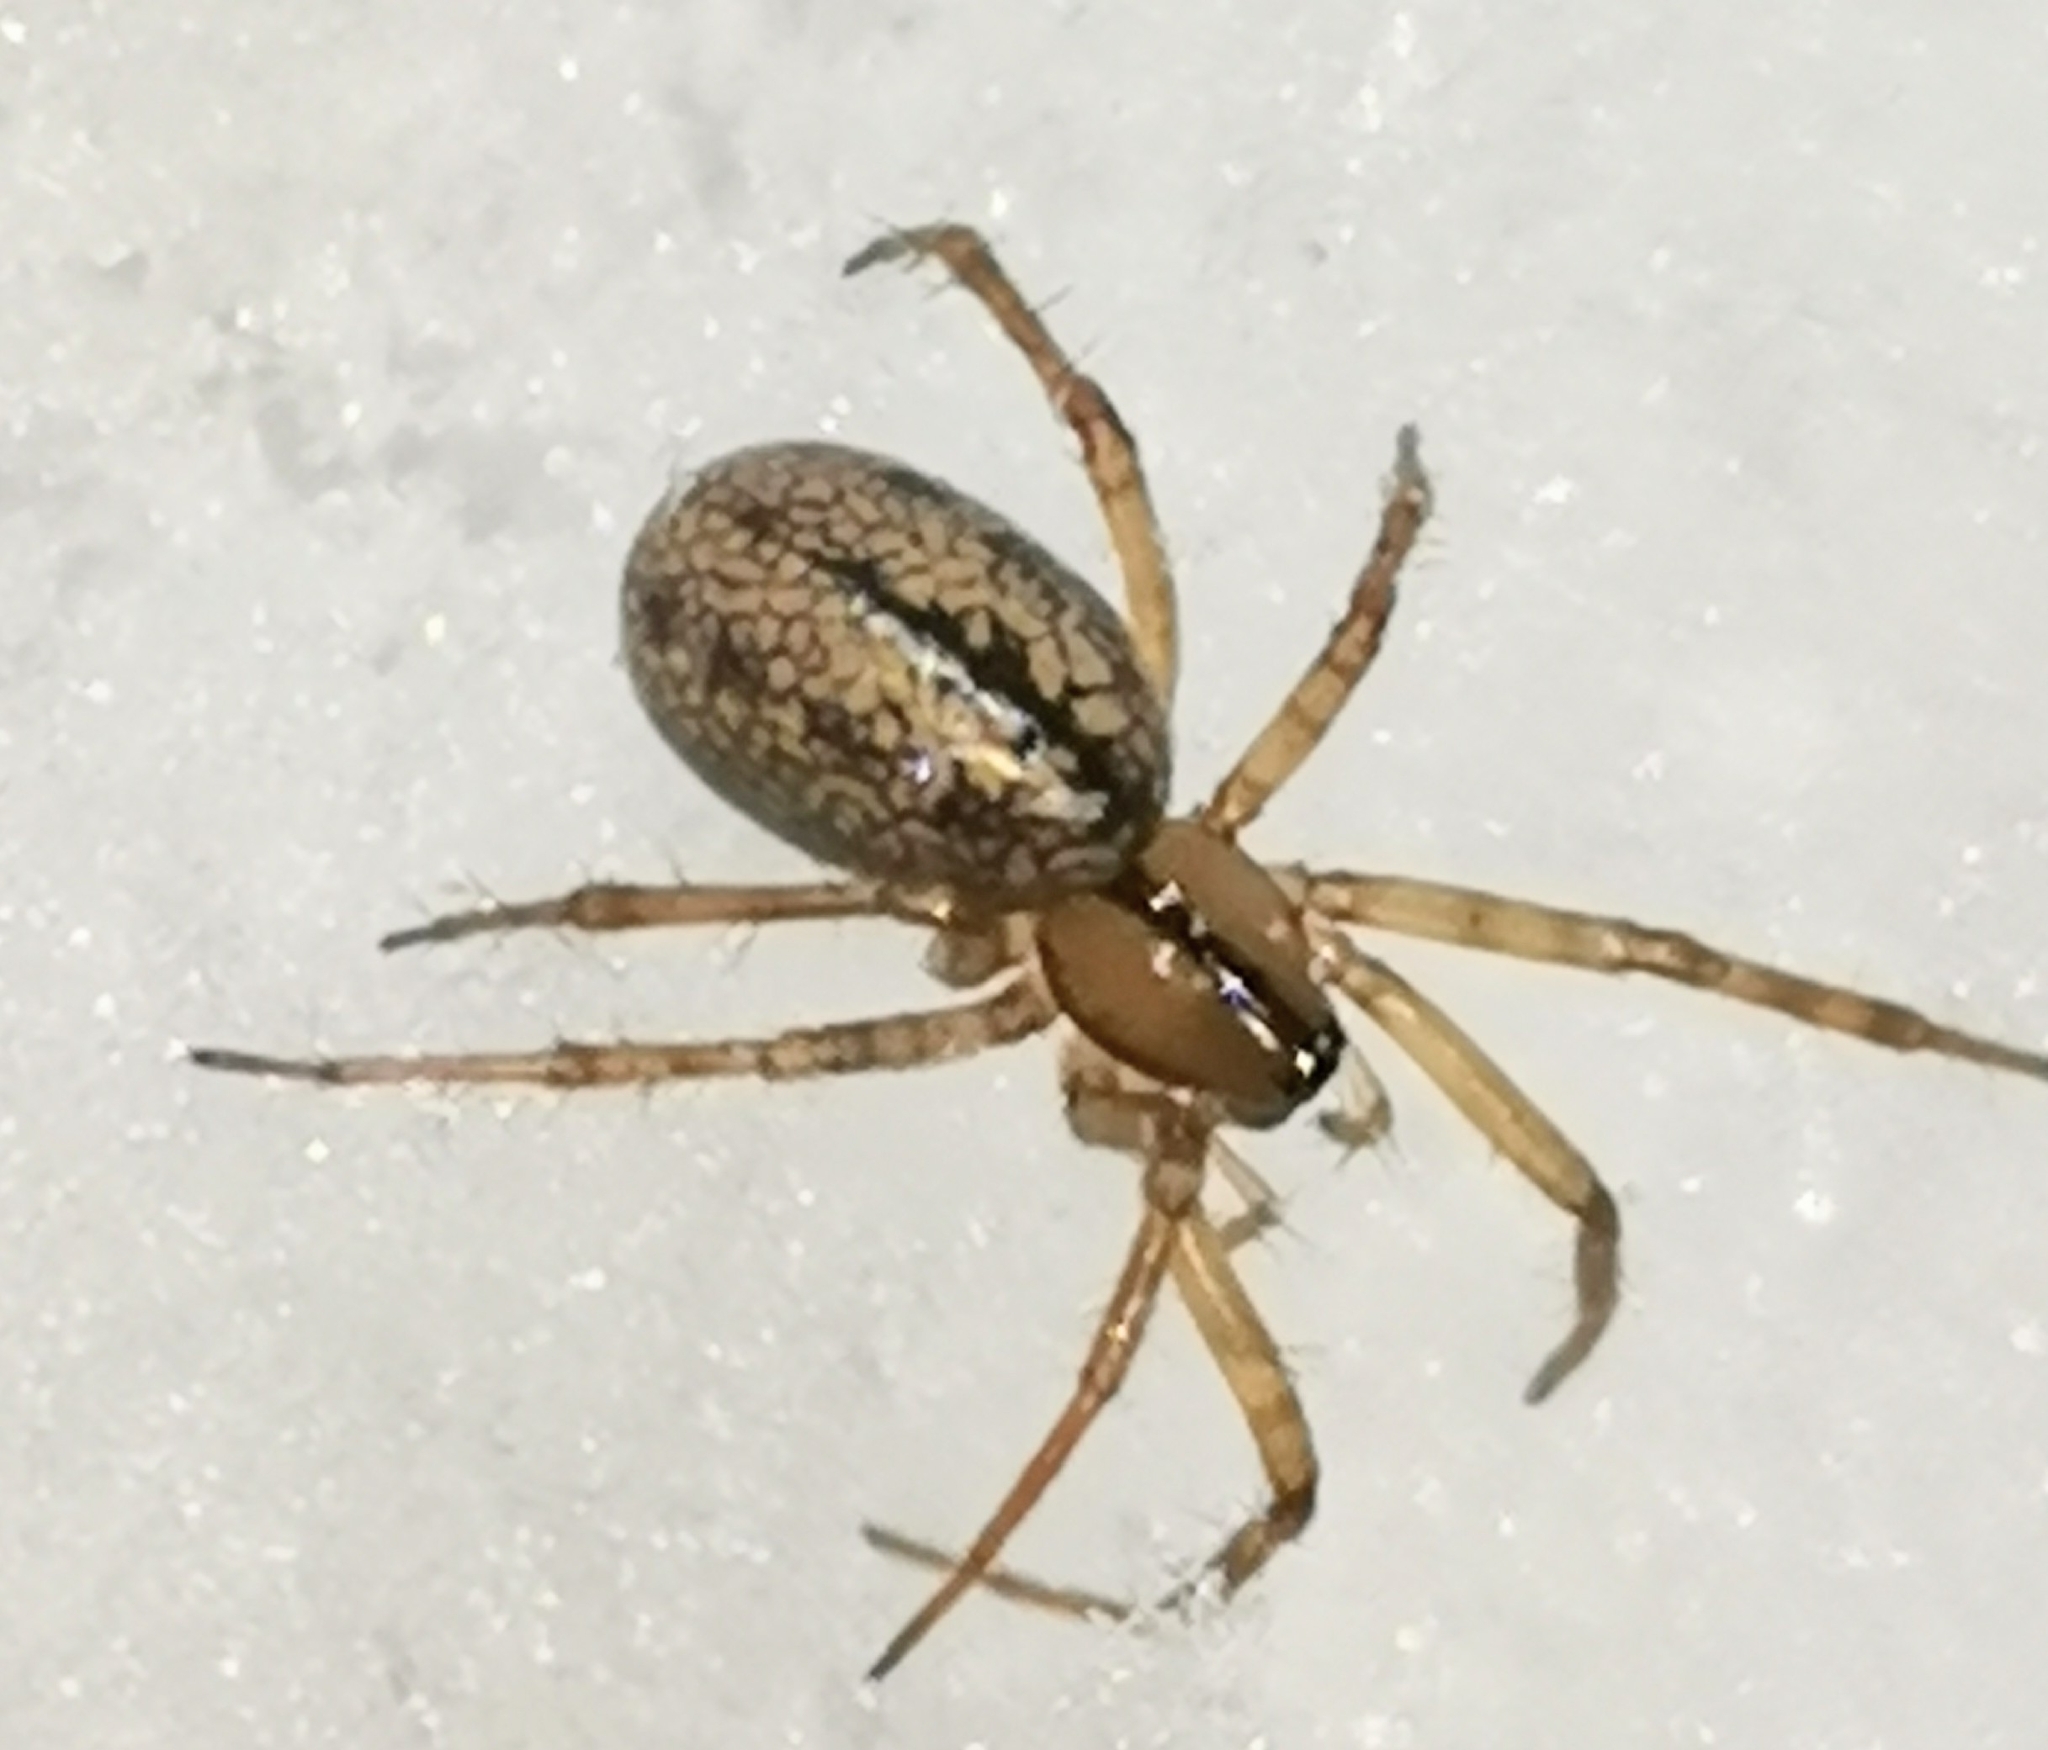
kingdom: Animalia
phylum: Arthropoda
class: Arachnida
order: Araneae
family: Linyphiidae
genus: Stemonyphantes
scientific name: Stemonyphantes lineatus
